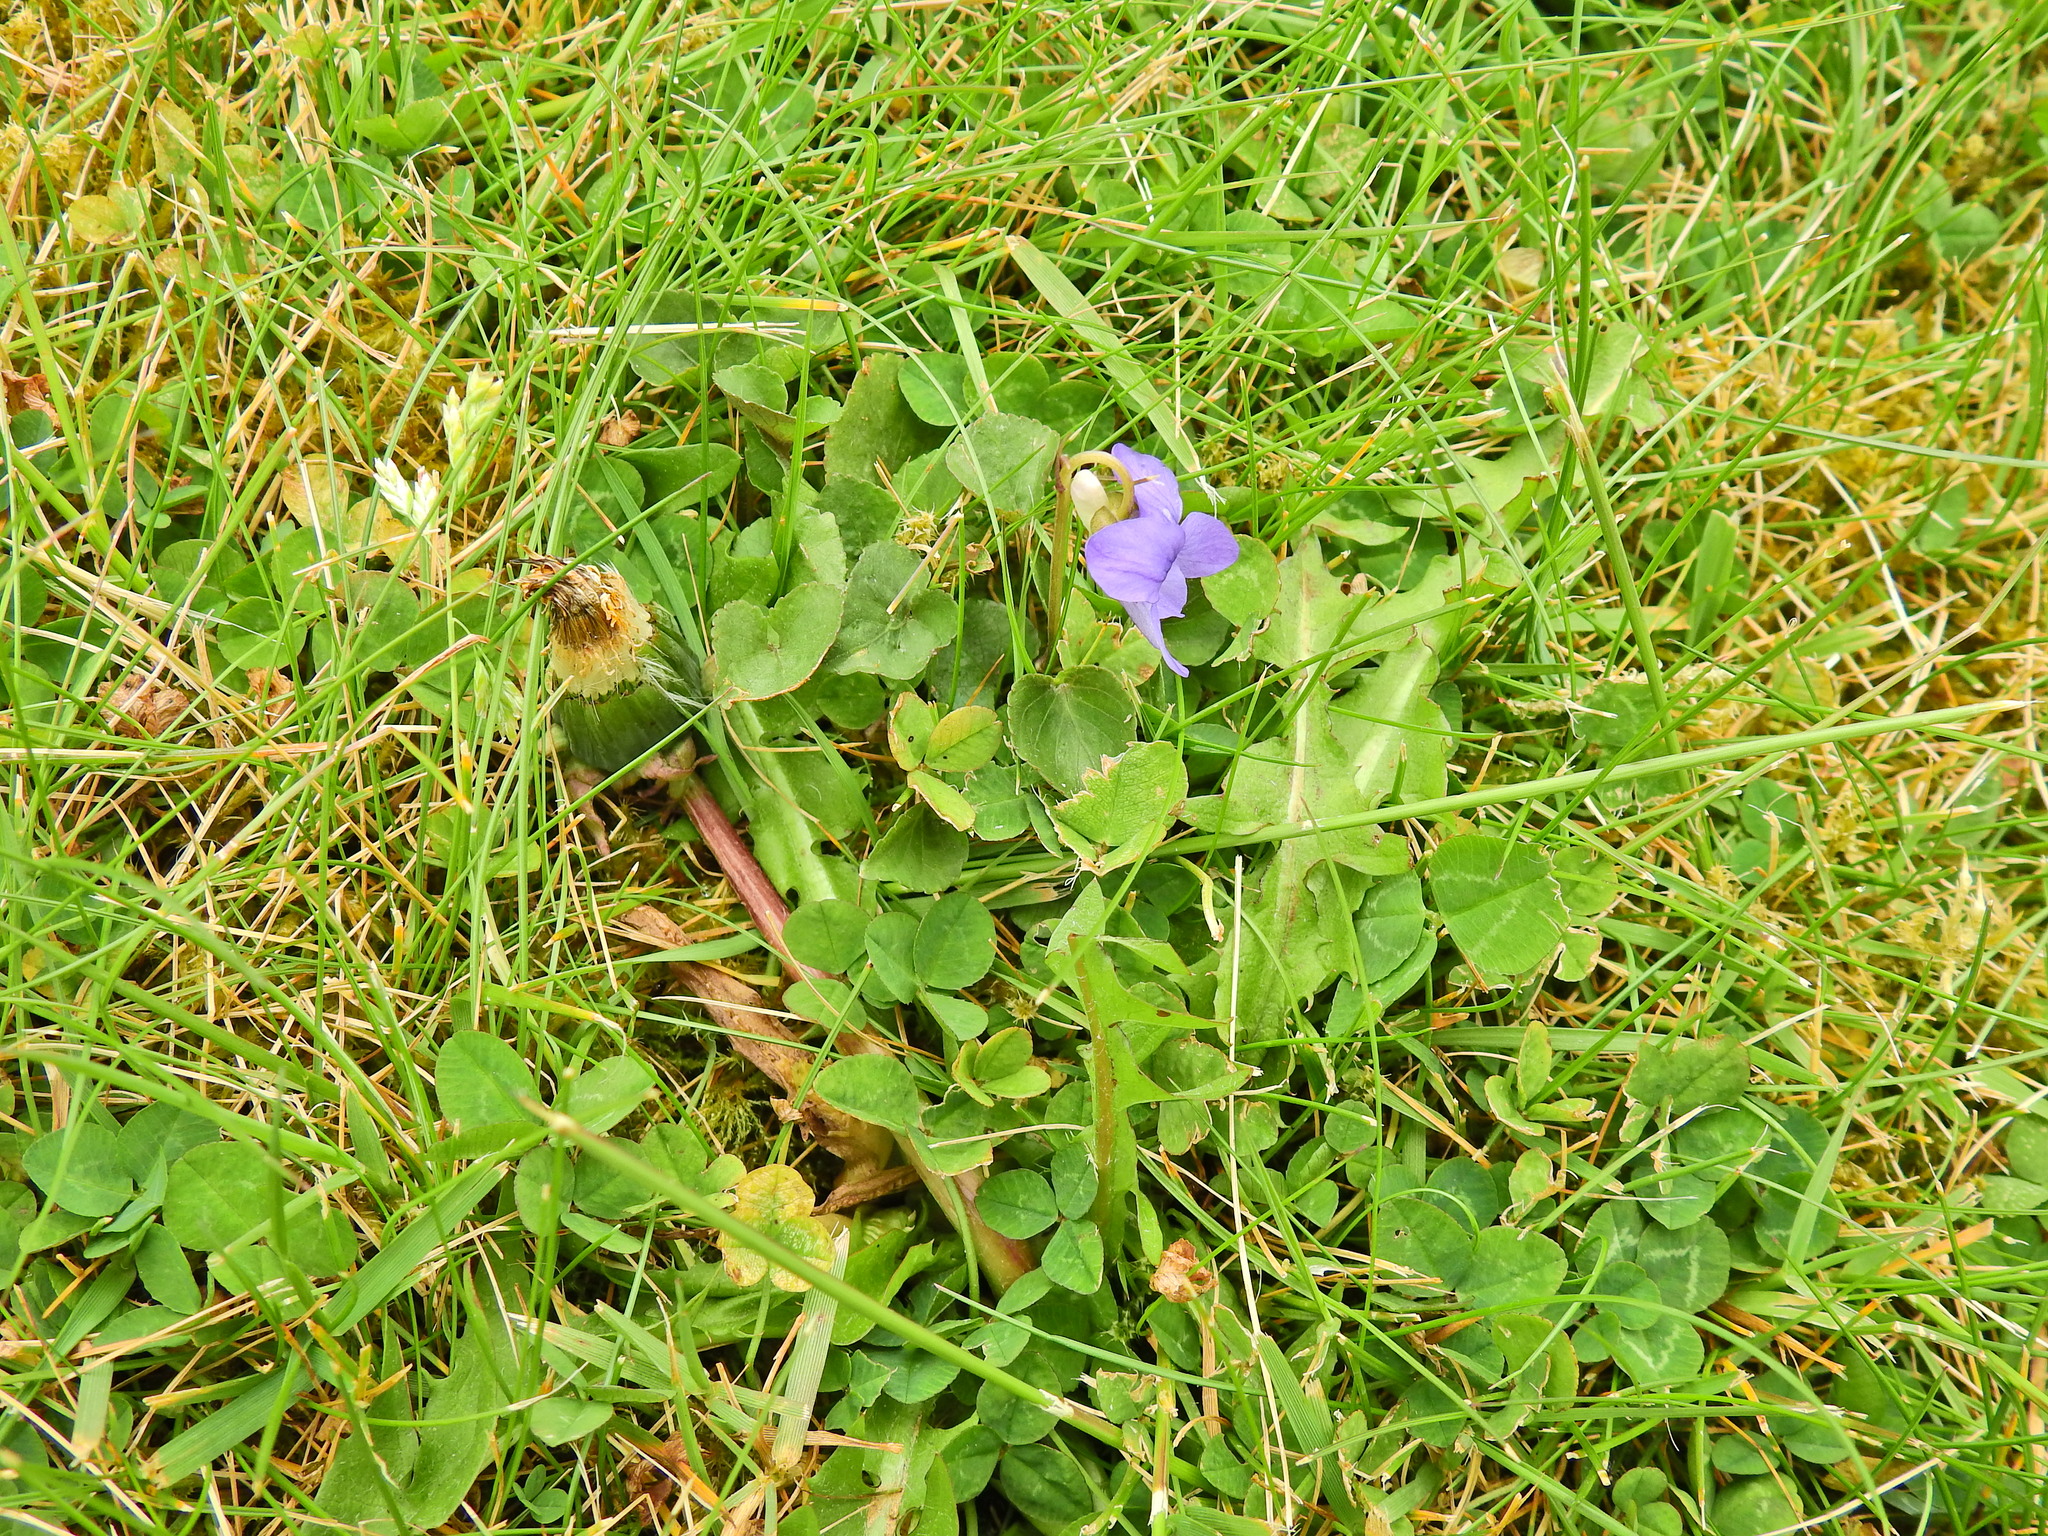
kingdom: Plantae
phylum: Tracheophyta
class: Magnoliopsida
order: Malpighiales
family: Violaceae
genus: Viola
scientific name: Viola riviniana
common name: Common dog-violet
